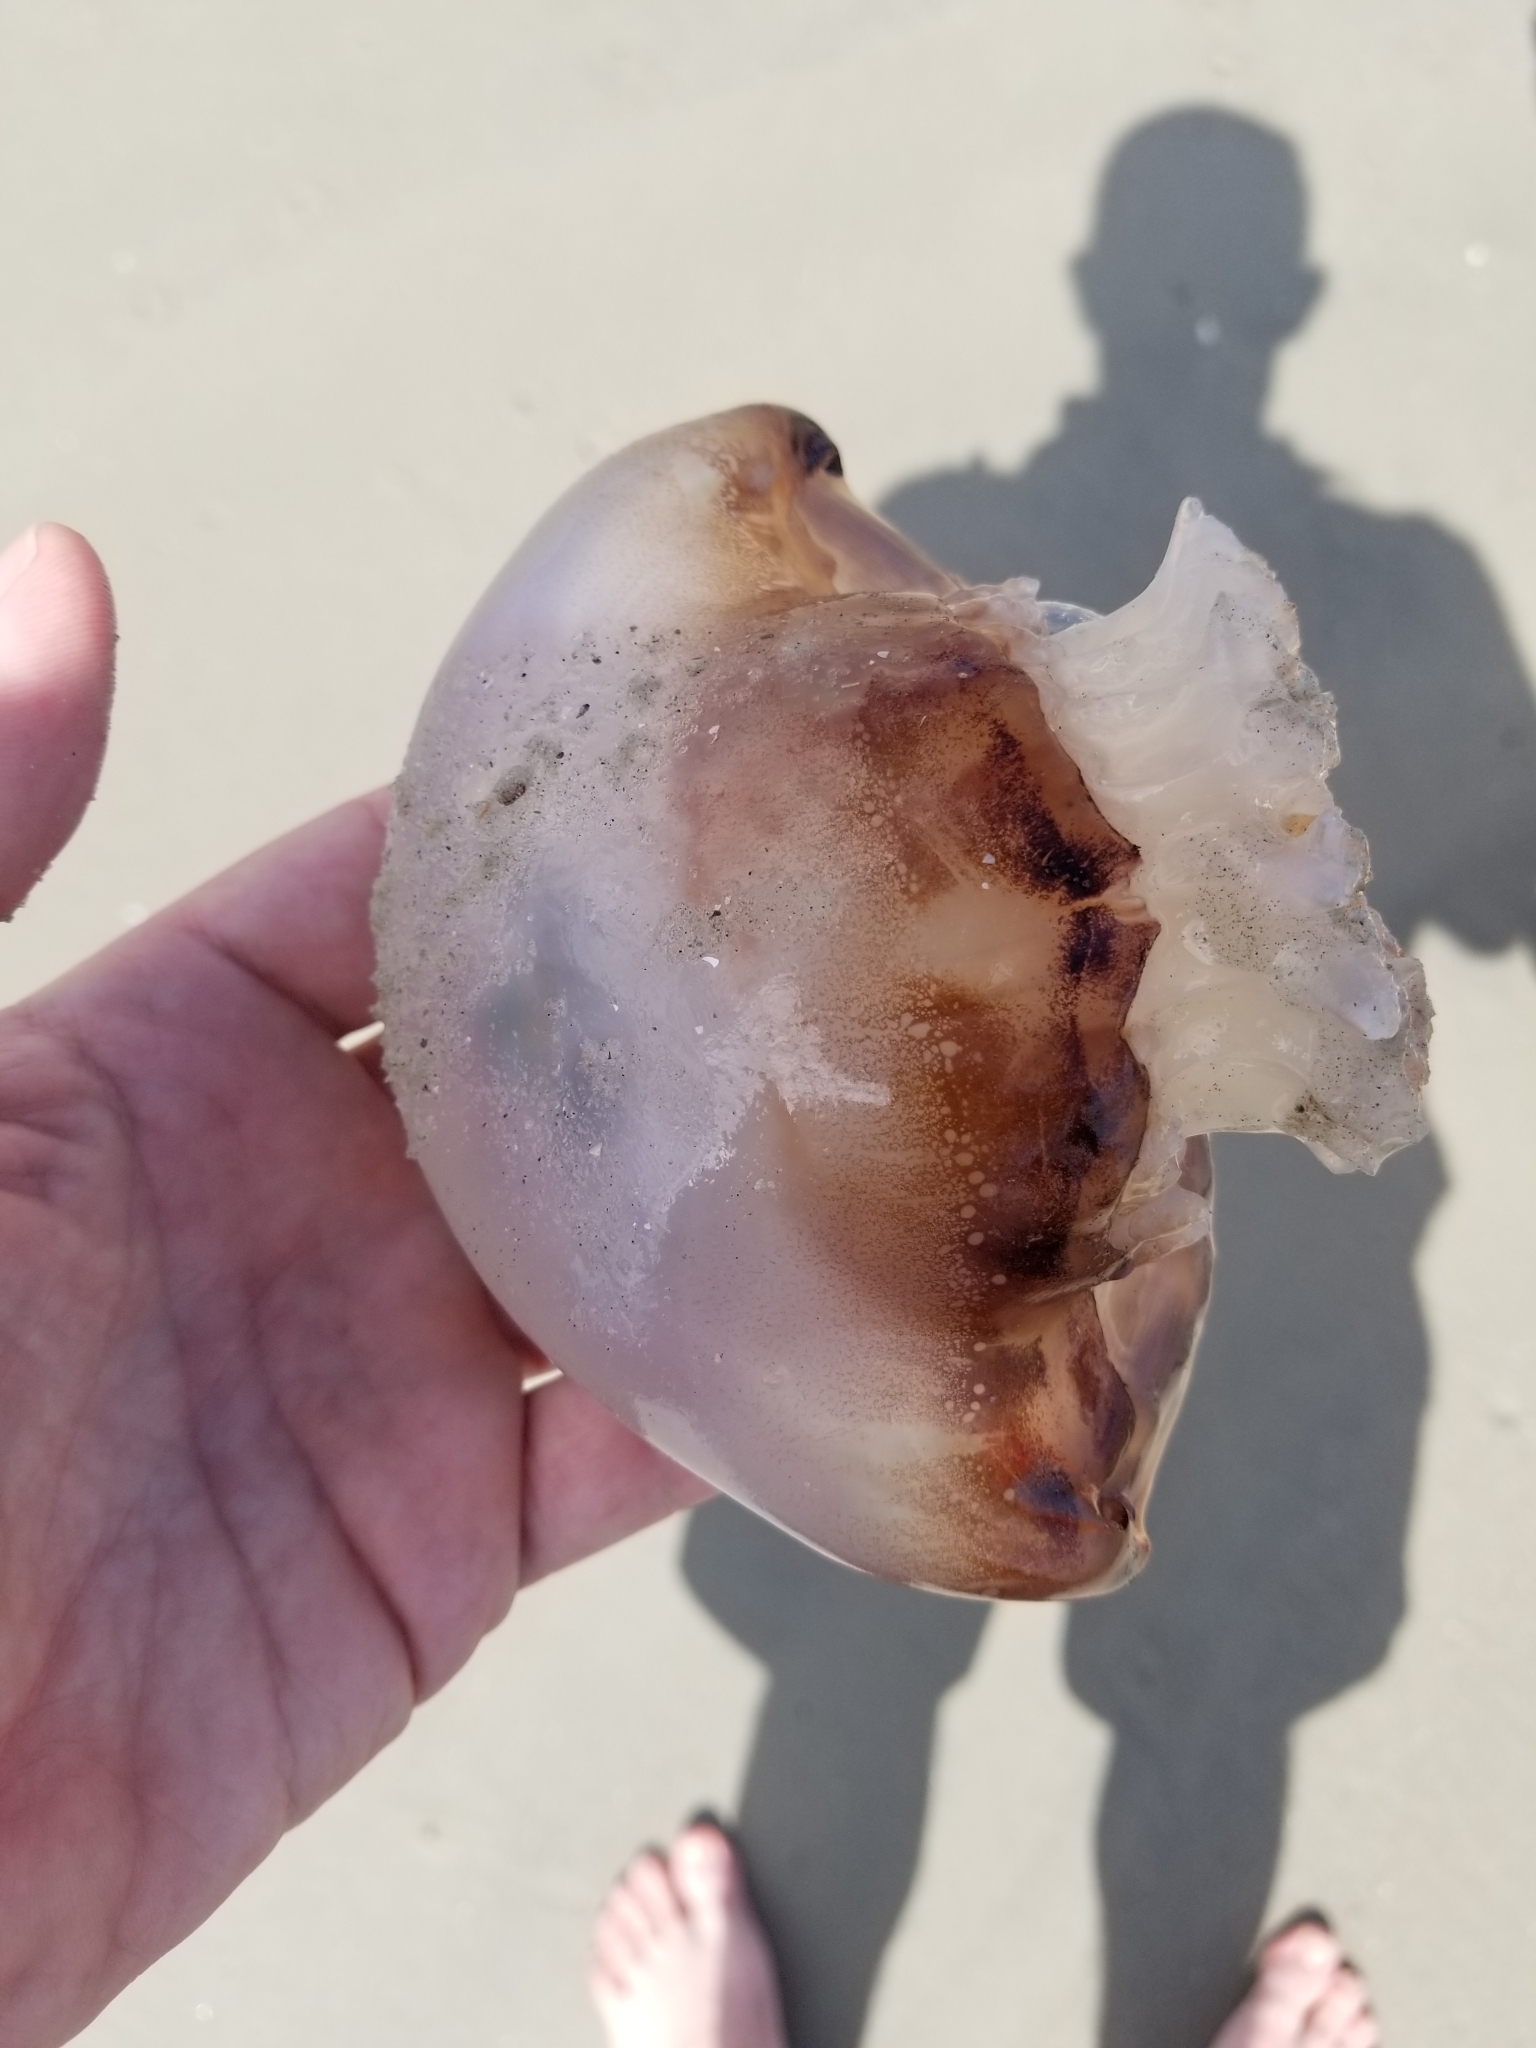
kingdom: Animalia
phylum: Cnidaria
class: Scyphozoa
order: Rhizostomeae
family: Stomolophidae
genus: Stomolophus
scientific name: Stomolophus meleagris
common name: Cabbagehead
